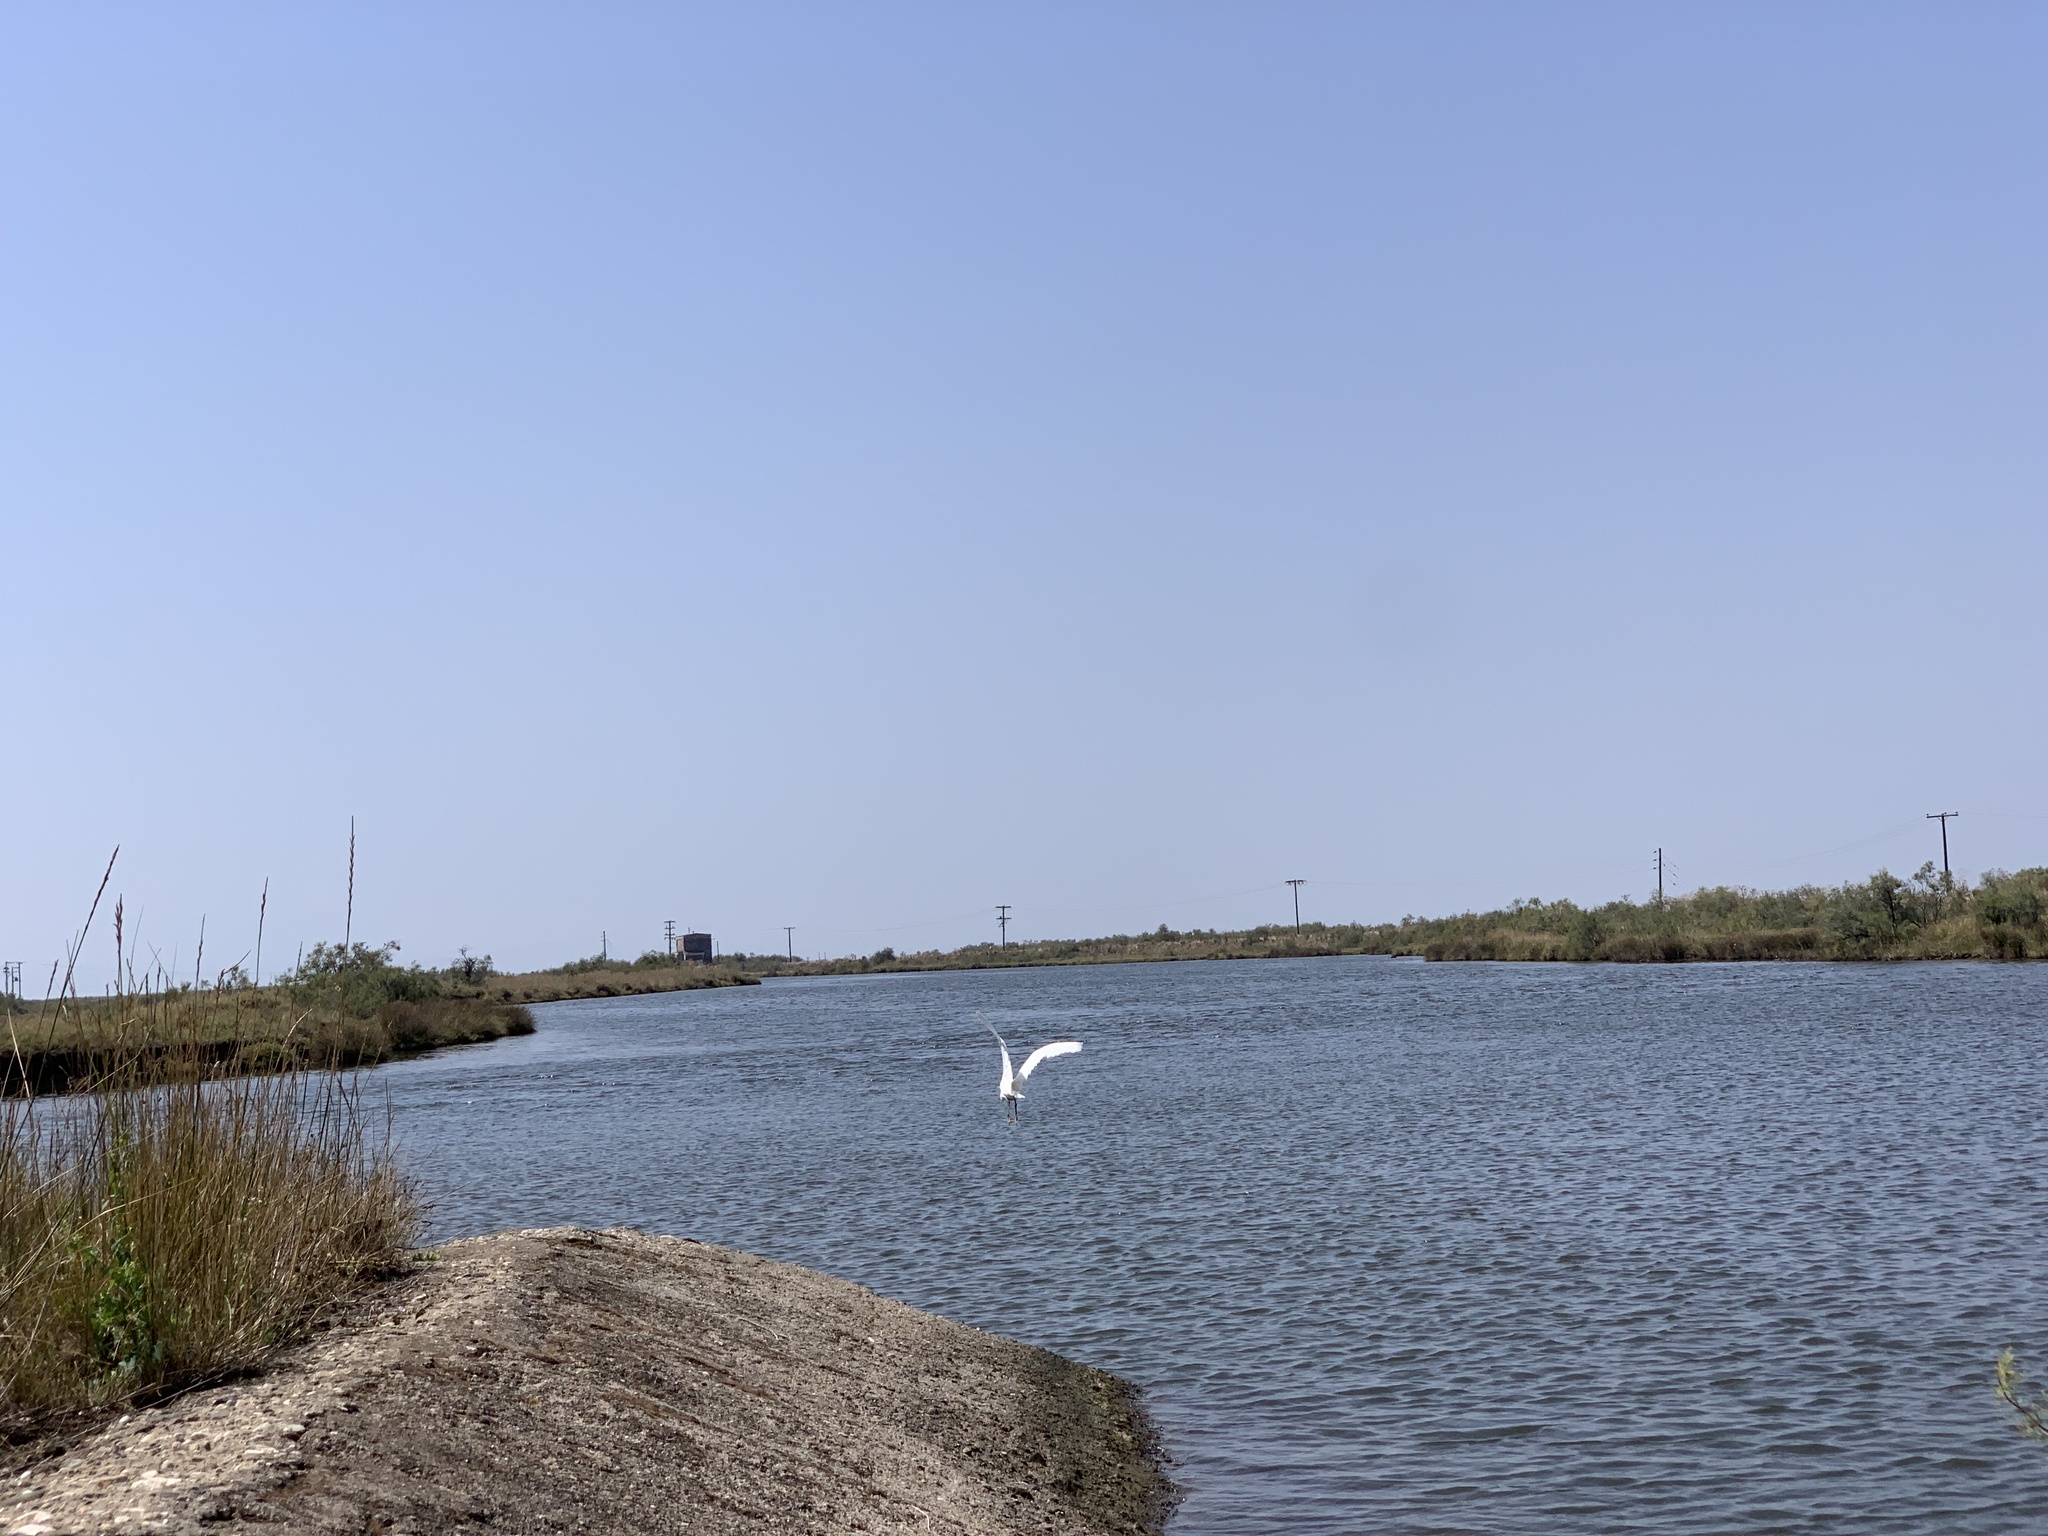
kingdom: Animalia
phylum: Chordata
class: Aves
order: Pelecaniformes
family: Ardeidae
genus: Egretta
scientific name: Egretta garzetta
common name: Little egret
